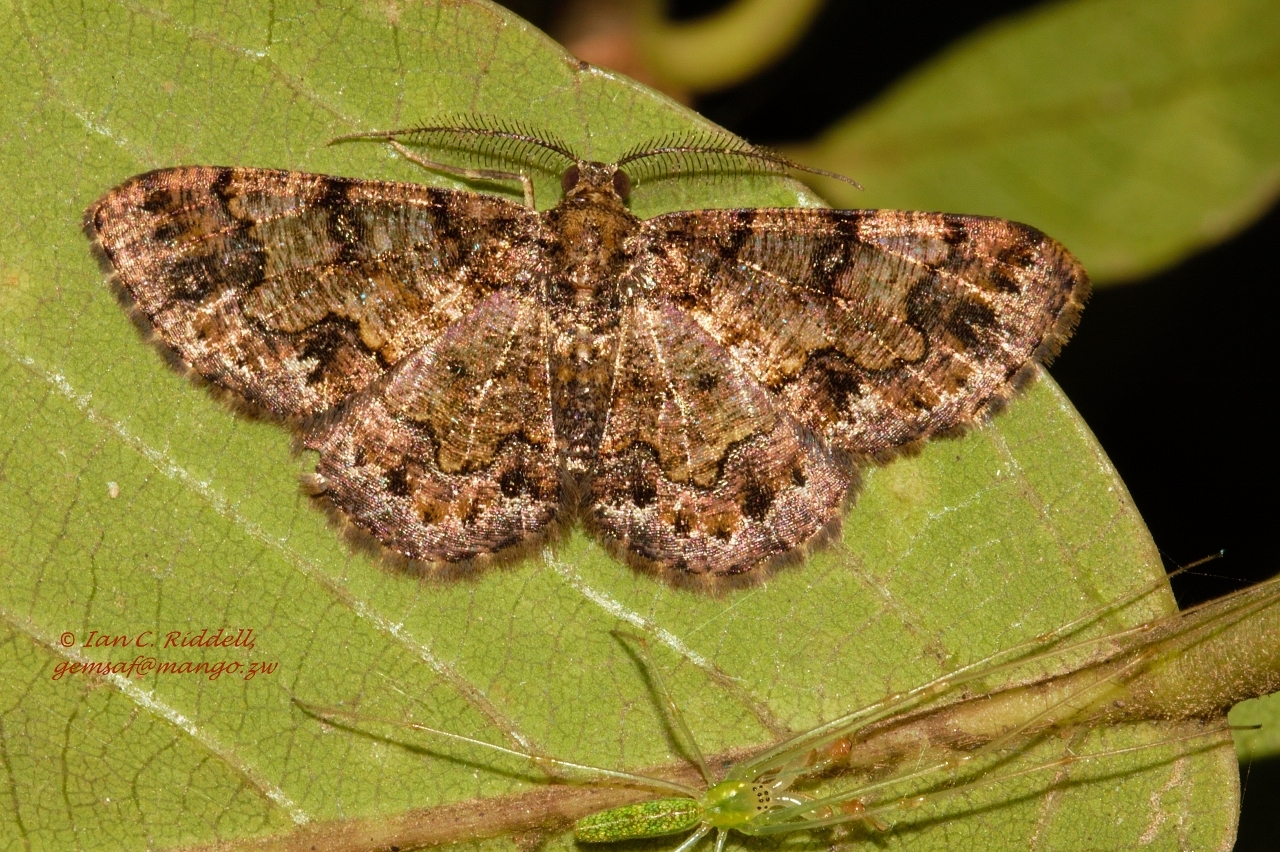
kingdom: Animalia
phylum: Arthropoda
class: Insecta
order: Lepidoptera
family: Geometridae
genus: Zamarada
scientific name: Zamarada torrida
